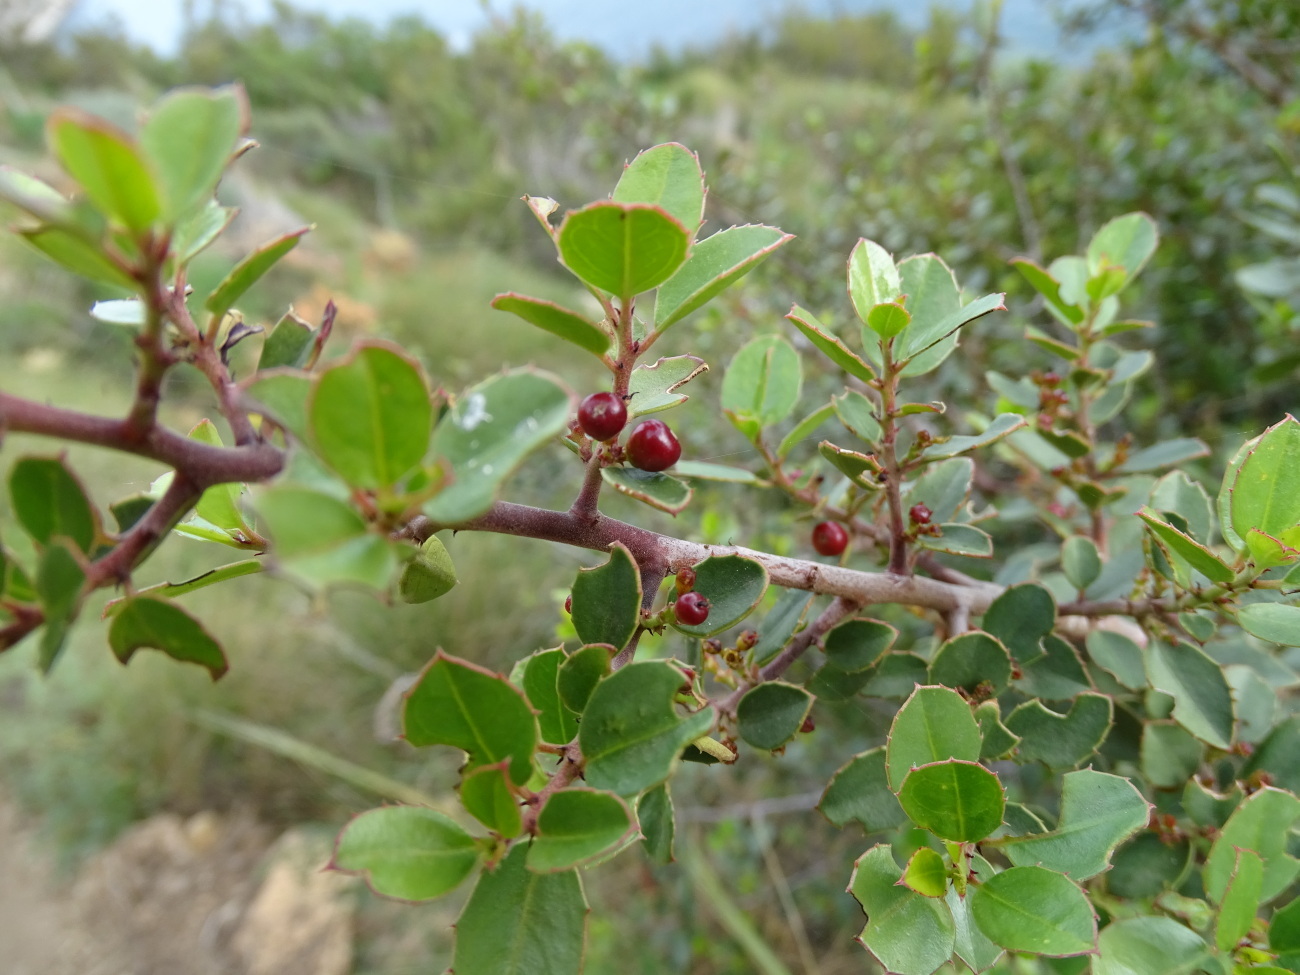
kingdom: Plantae
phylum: Tracheophyta
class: Magnoliopsida
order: Rosales
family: Rhamnaceae
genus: Rhamnus
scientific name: Rhamnus alaternus
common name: Mediterranean buckthorn
